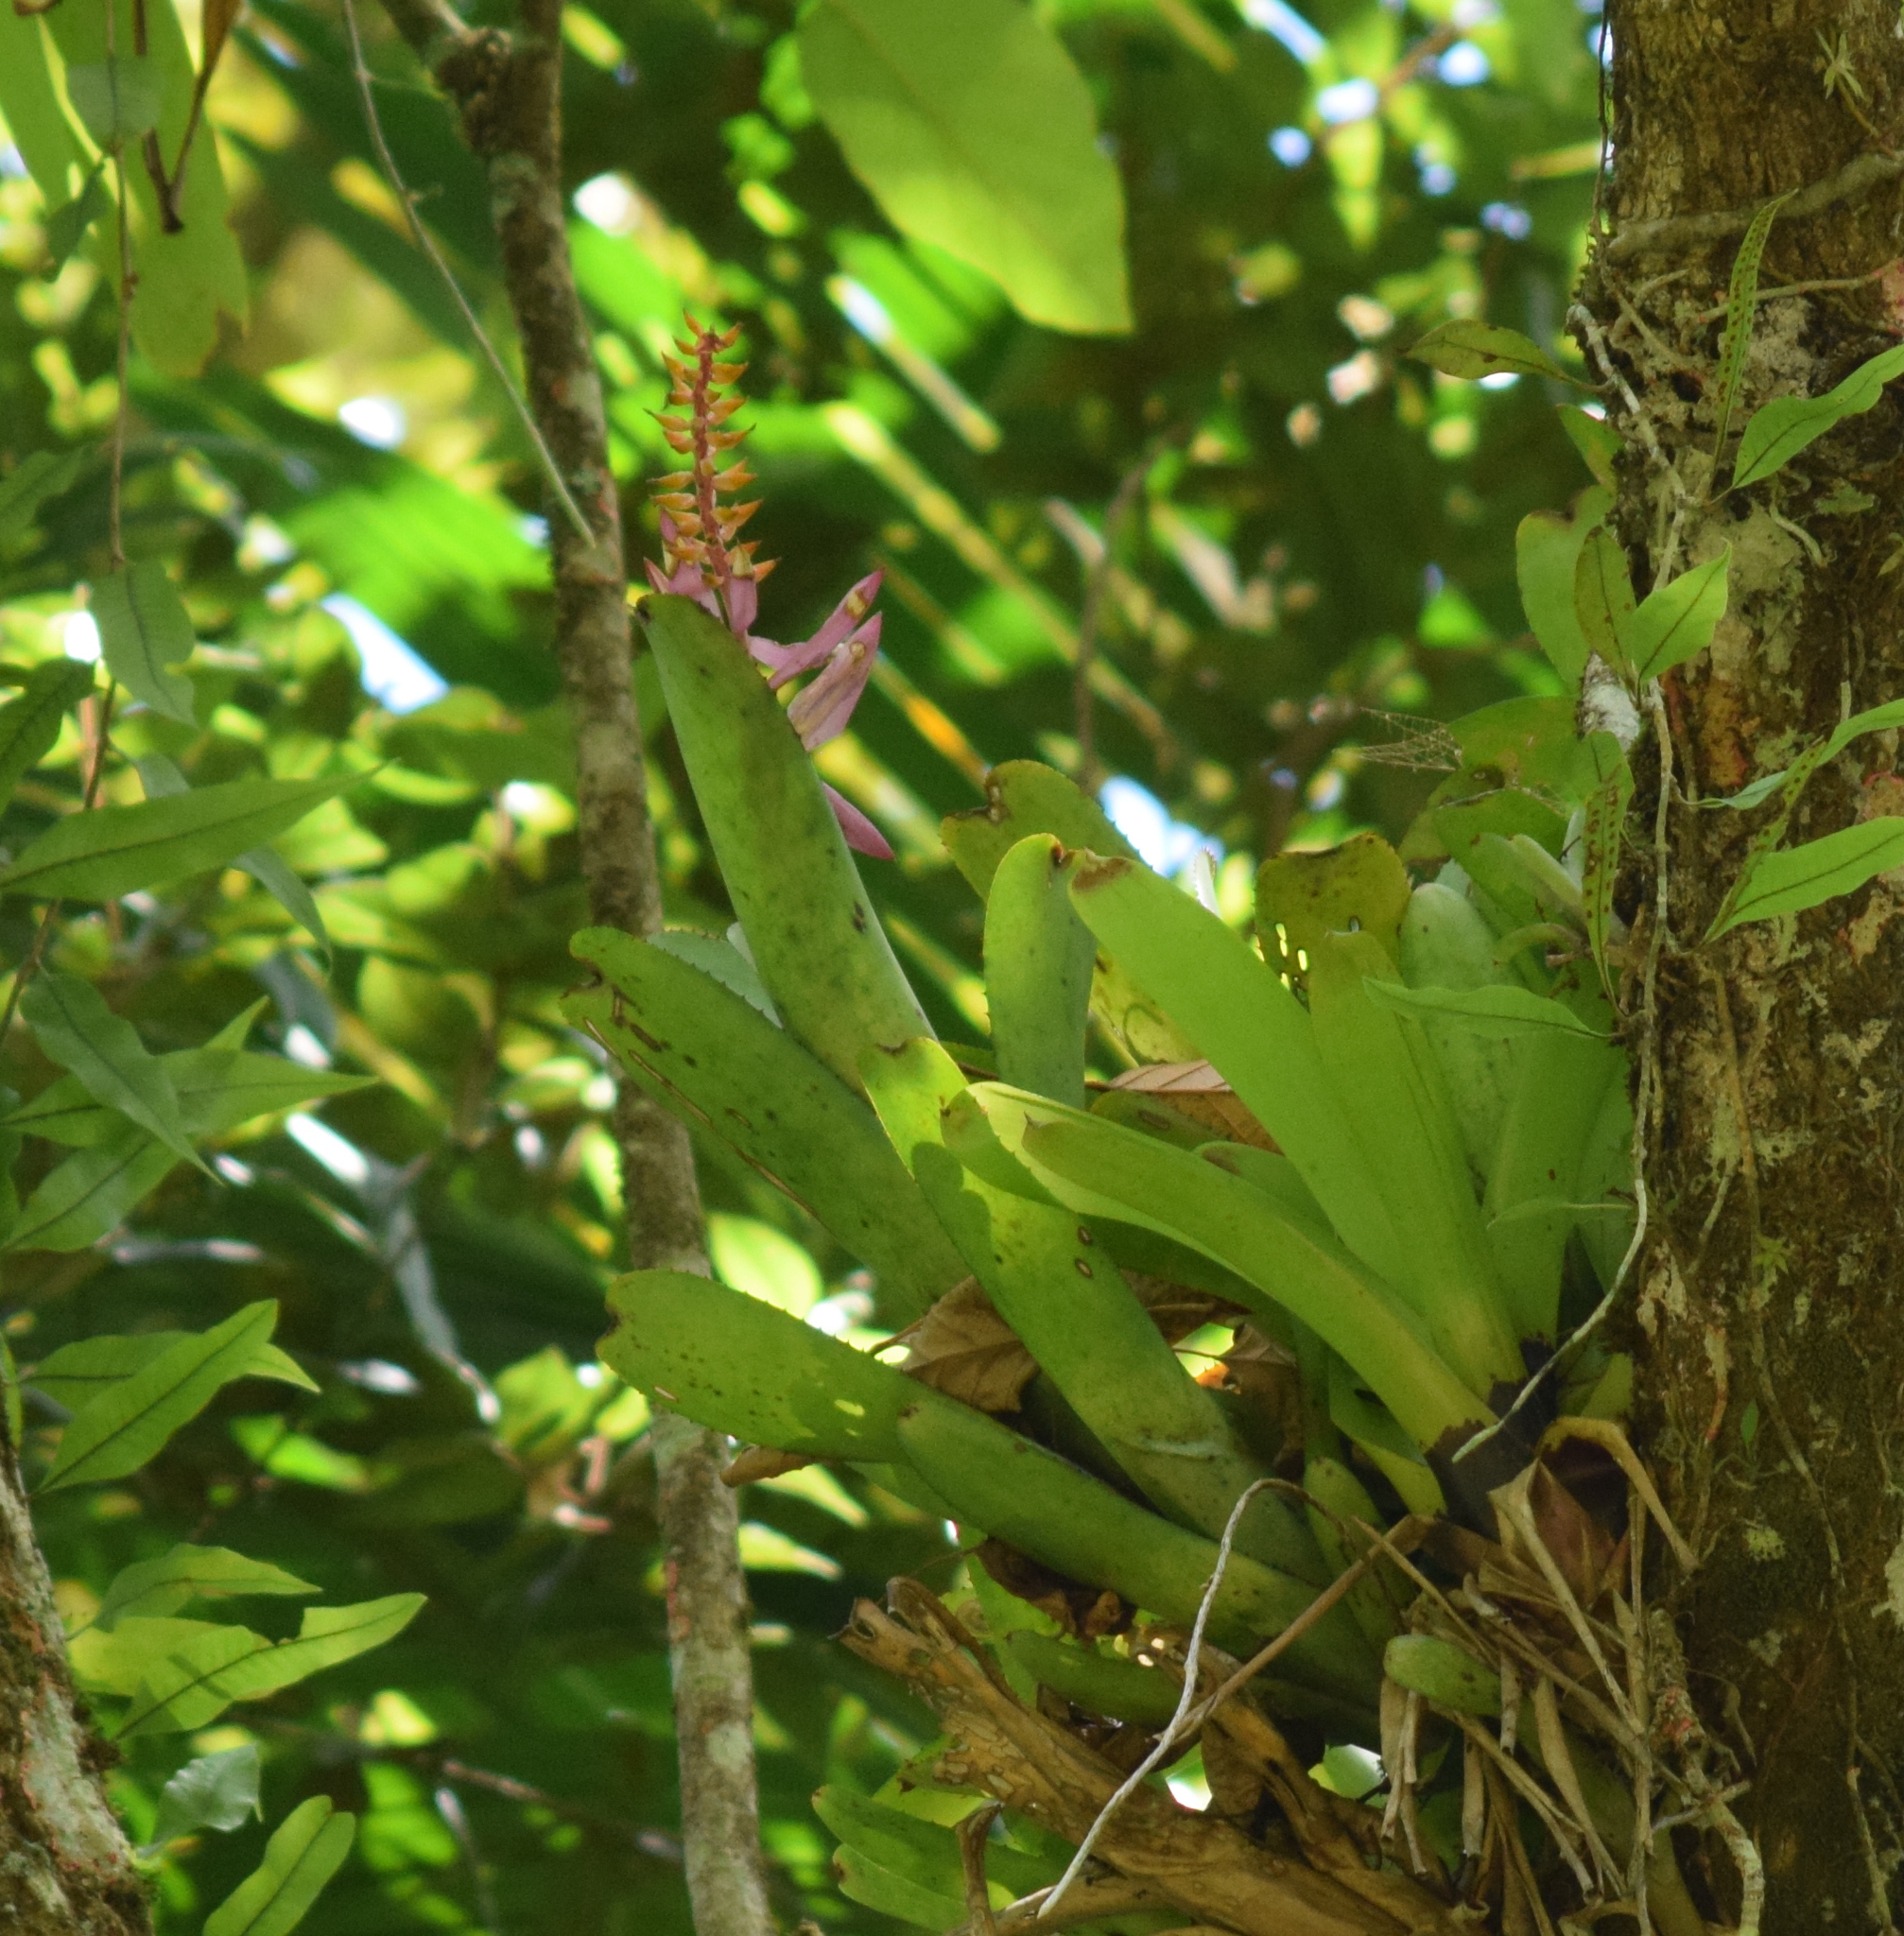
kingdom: Plantae
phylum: Tracheophyta
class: Liliopsida
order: Poales
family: Bromeliaceae
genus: Aechmea
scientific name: Aechmea nudicaulis
